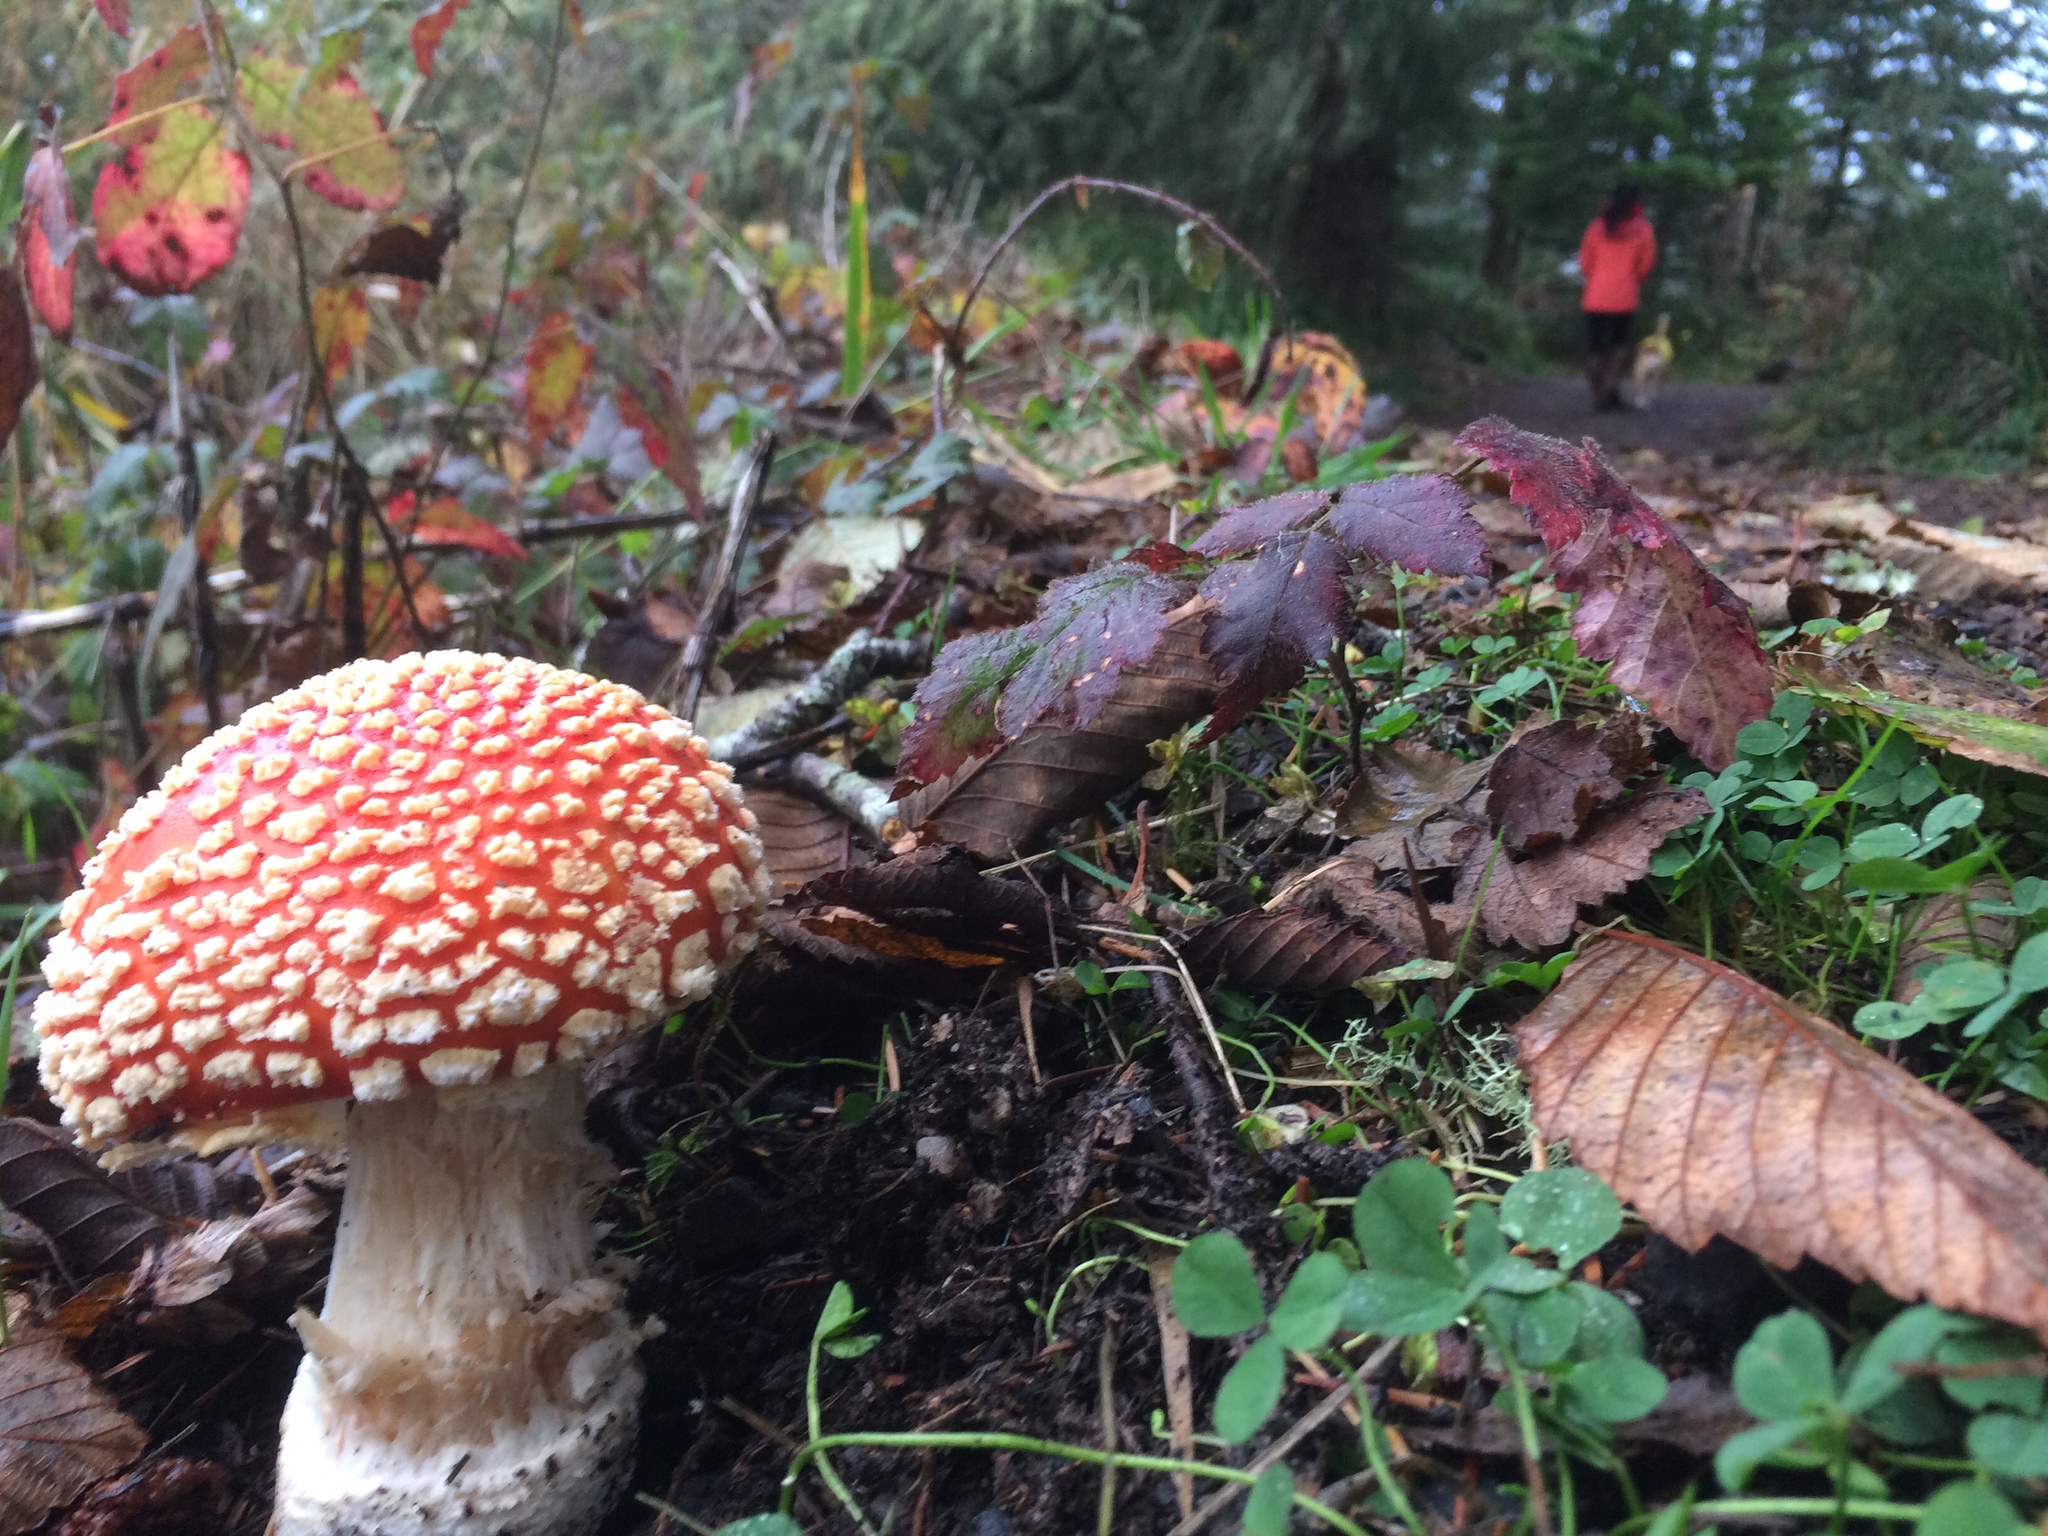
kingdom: Fungi
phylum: Basidiomycota
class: Agaricomycetes
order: Agaricales
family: Amanitaceae
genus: Amanita
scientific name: Amanita muscaria
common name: Fly agaric
